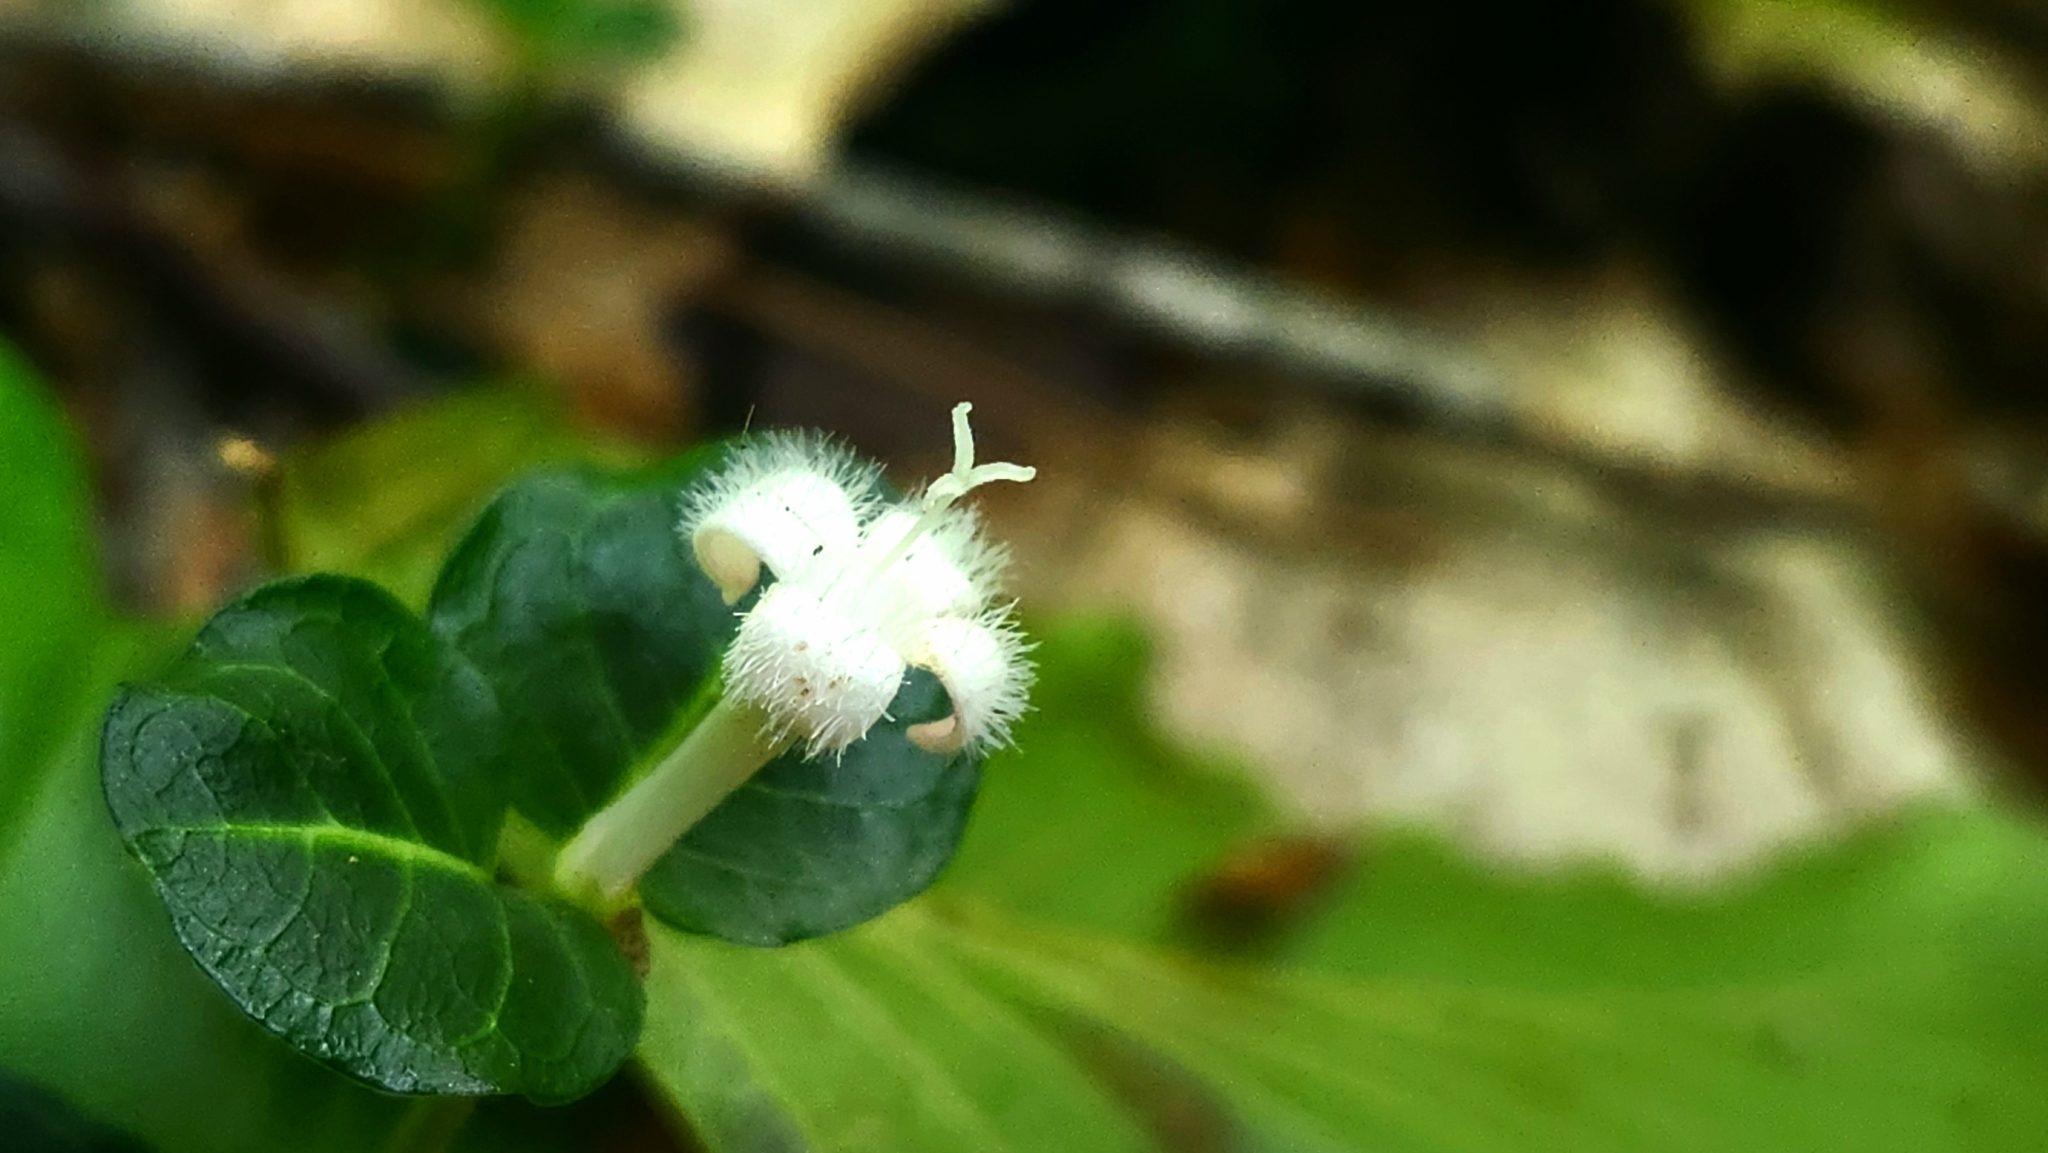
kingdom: Plantae
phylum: Tracheophyta
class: Magnoliopsida
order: Gentianales
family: Rubiaceae
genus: Mitchella
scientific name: Mitchella repens
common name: Partridge-berry
